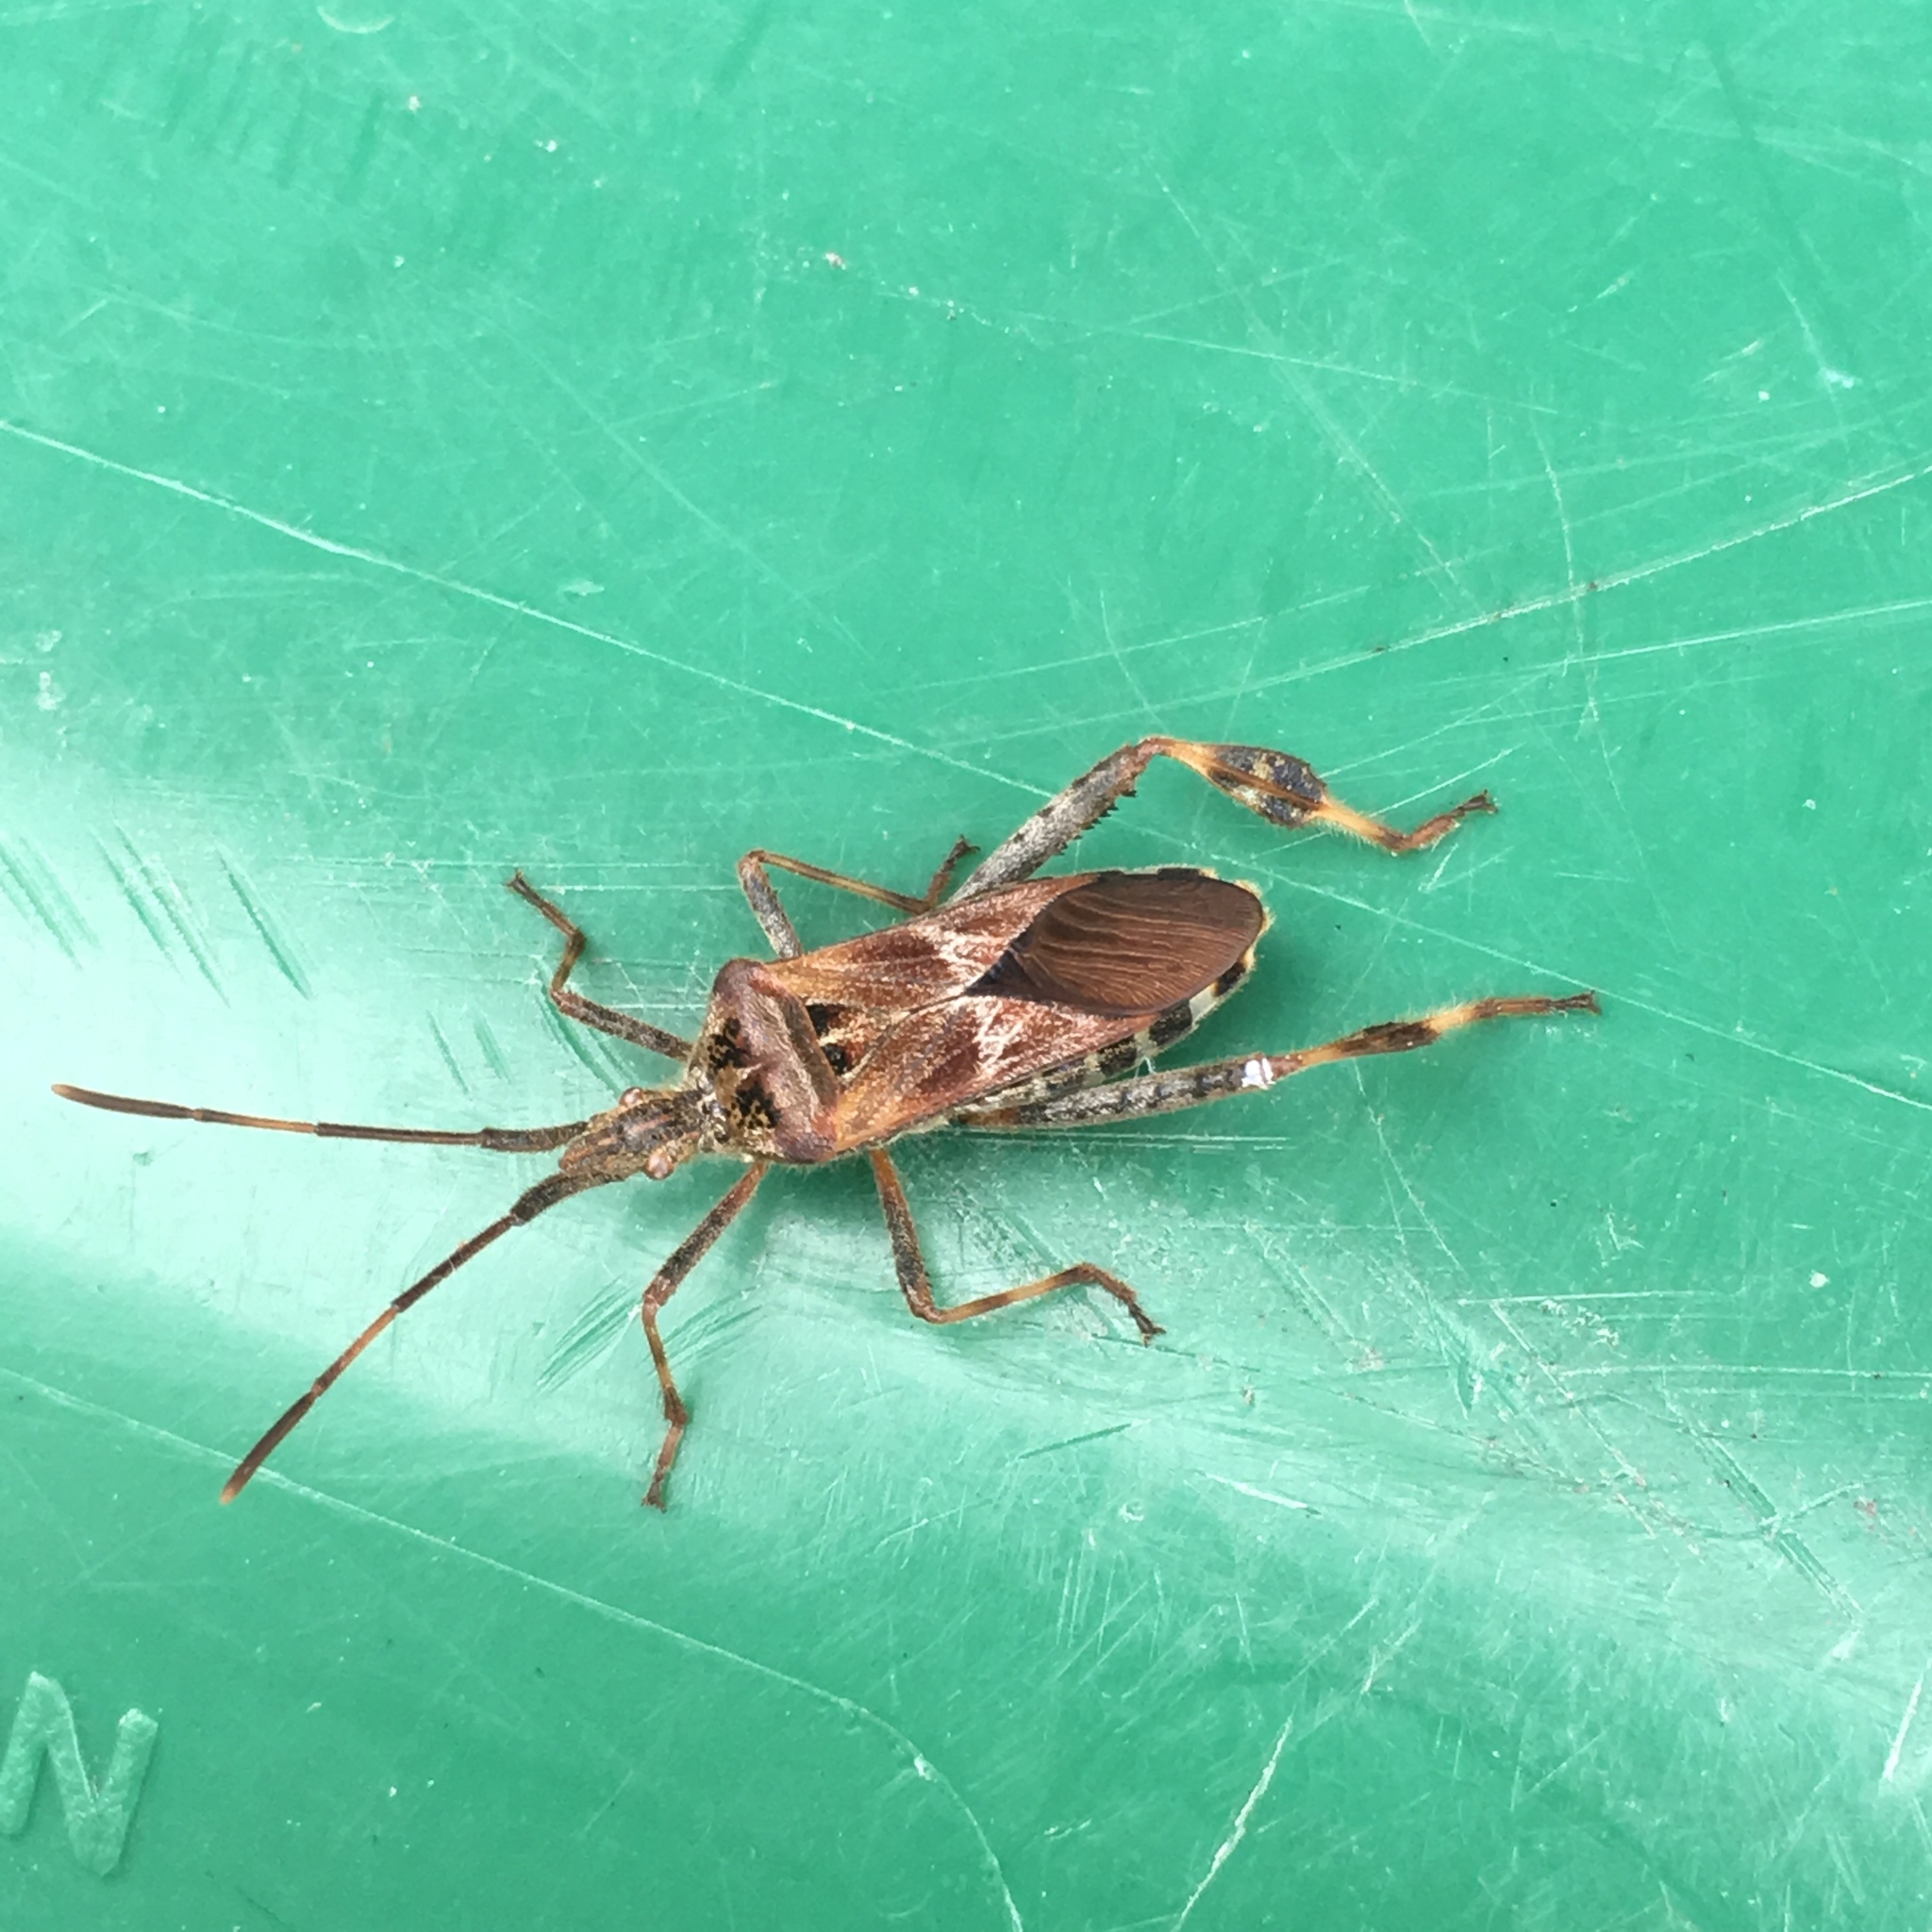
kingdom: Animalia
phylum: Arthropoda
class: Insecta
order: Hemiptera
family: Coreidae
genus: Leptoglossus
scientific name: Leptoglossus occidentalis
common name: Western conifer-seed bug
